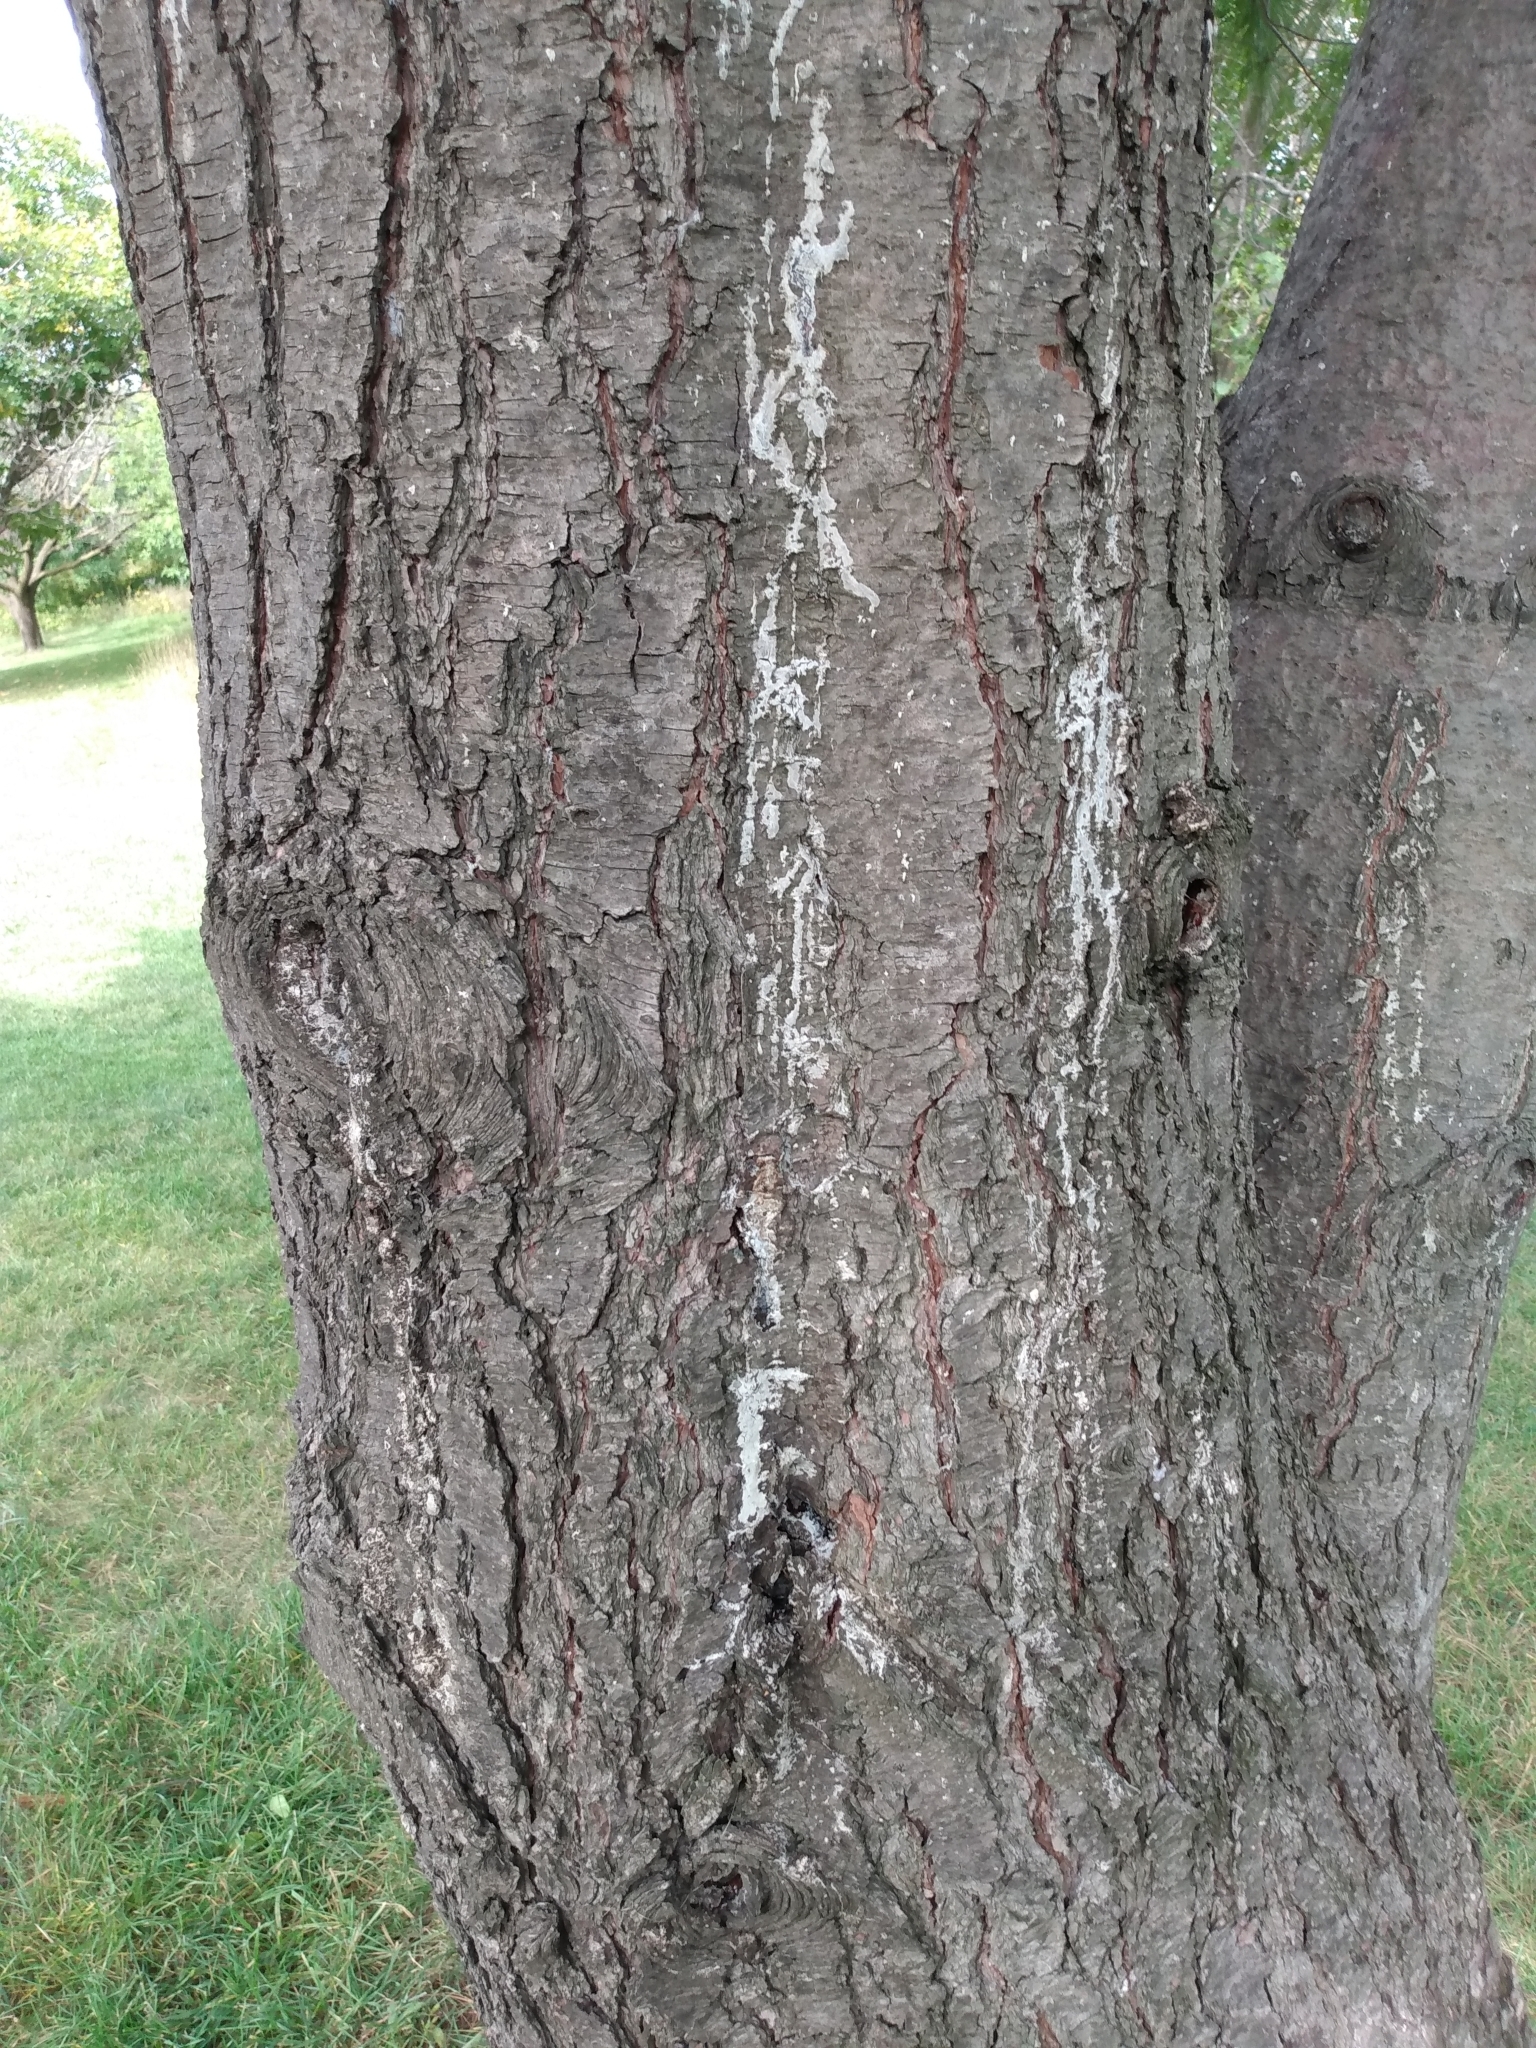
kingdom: Plantae
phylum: Tracheophyta
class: Pinopsida
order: Pinales
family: Pinaceae
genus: Pinus
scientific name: Pinus strobus
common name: Weymouth pine
